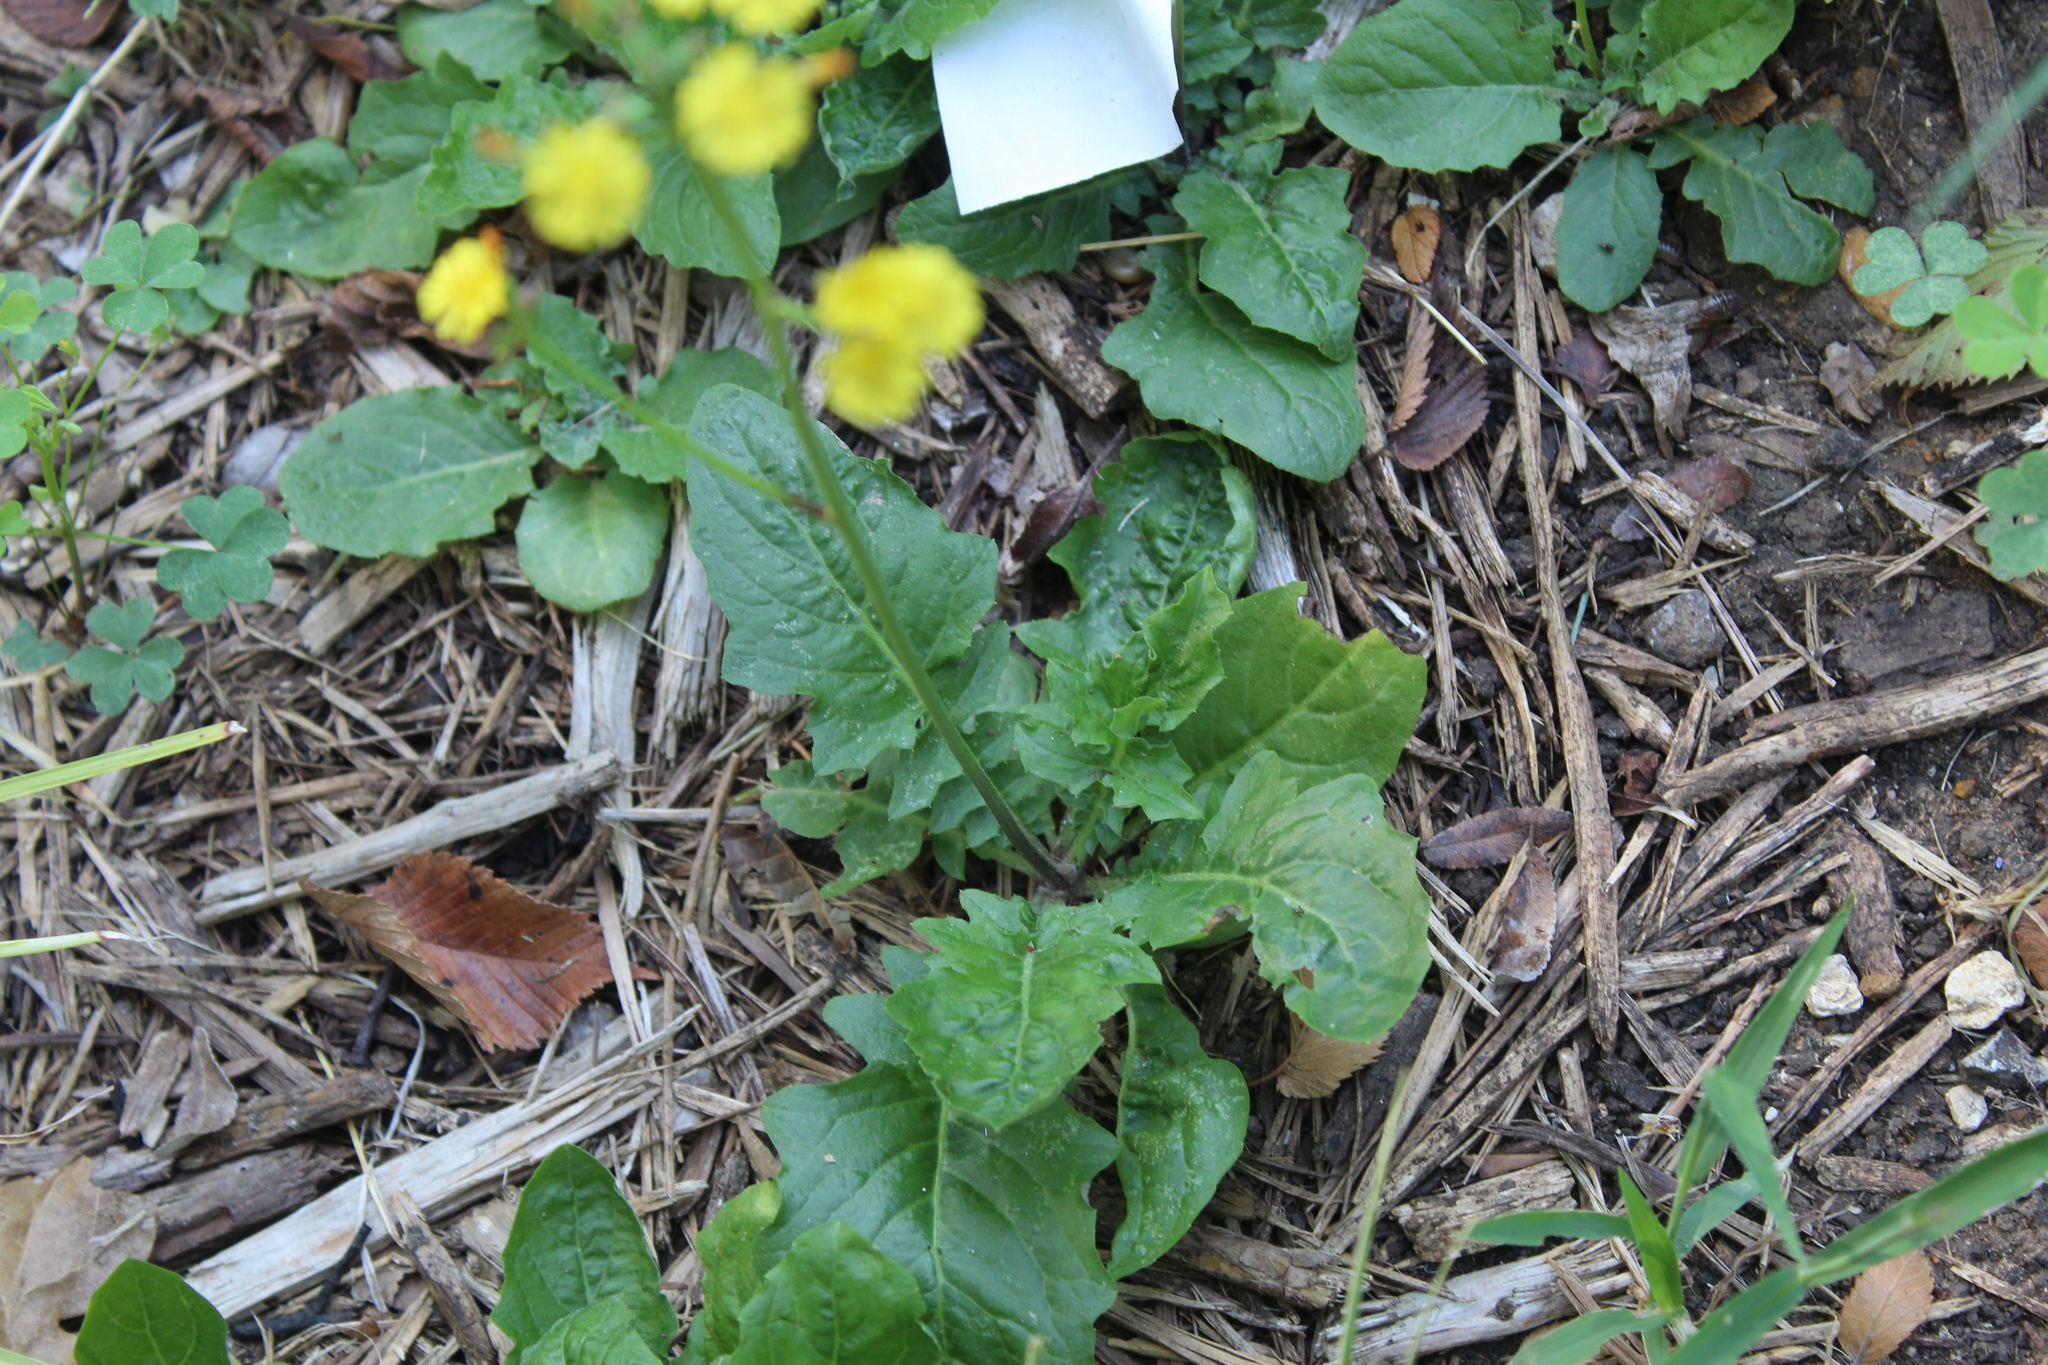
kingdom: Plantae
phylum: Tracheophyta
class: Magnoliopsida
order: Asterales
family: Asteraceae
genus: Youngia
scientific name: Youngia japonica
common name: Oriental false hawksbeard
